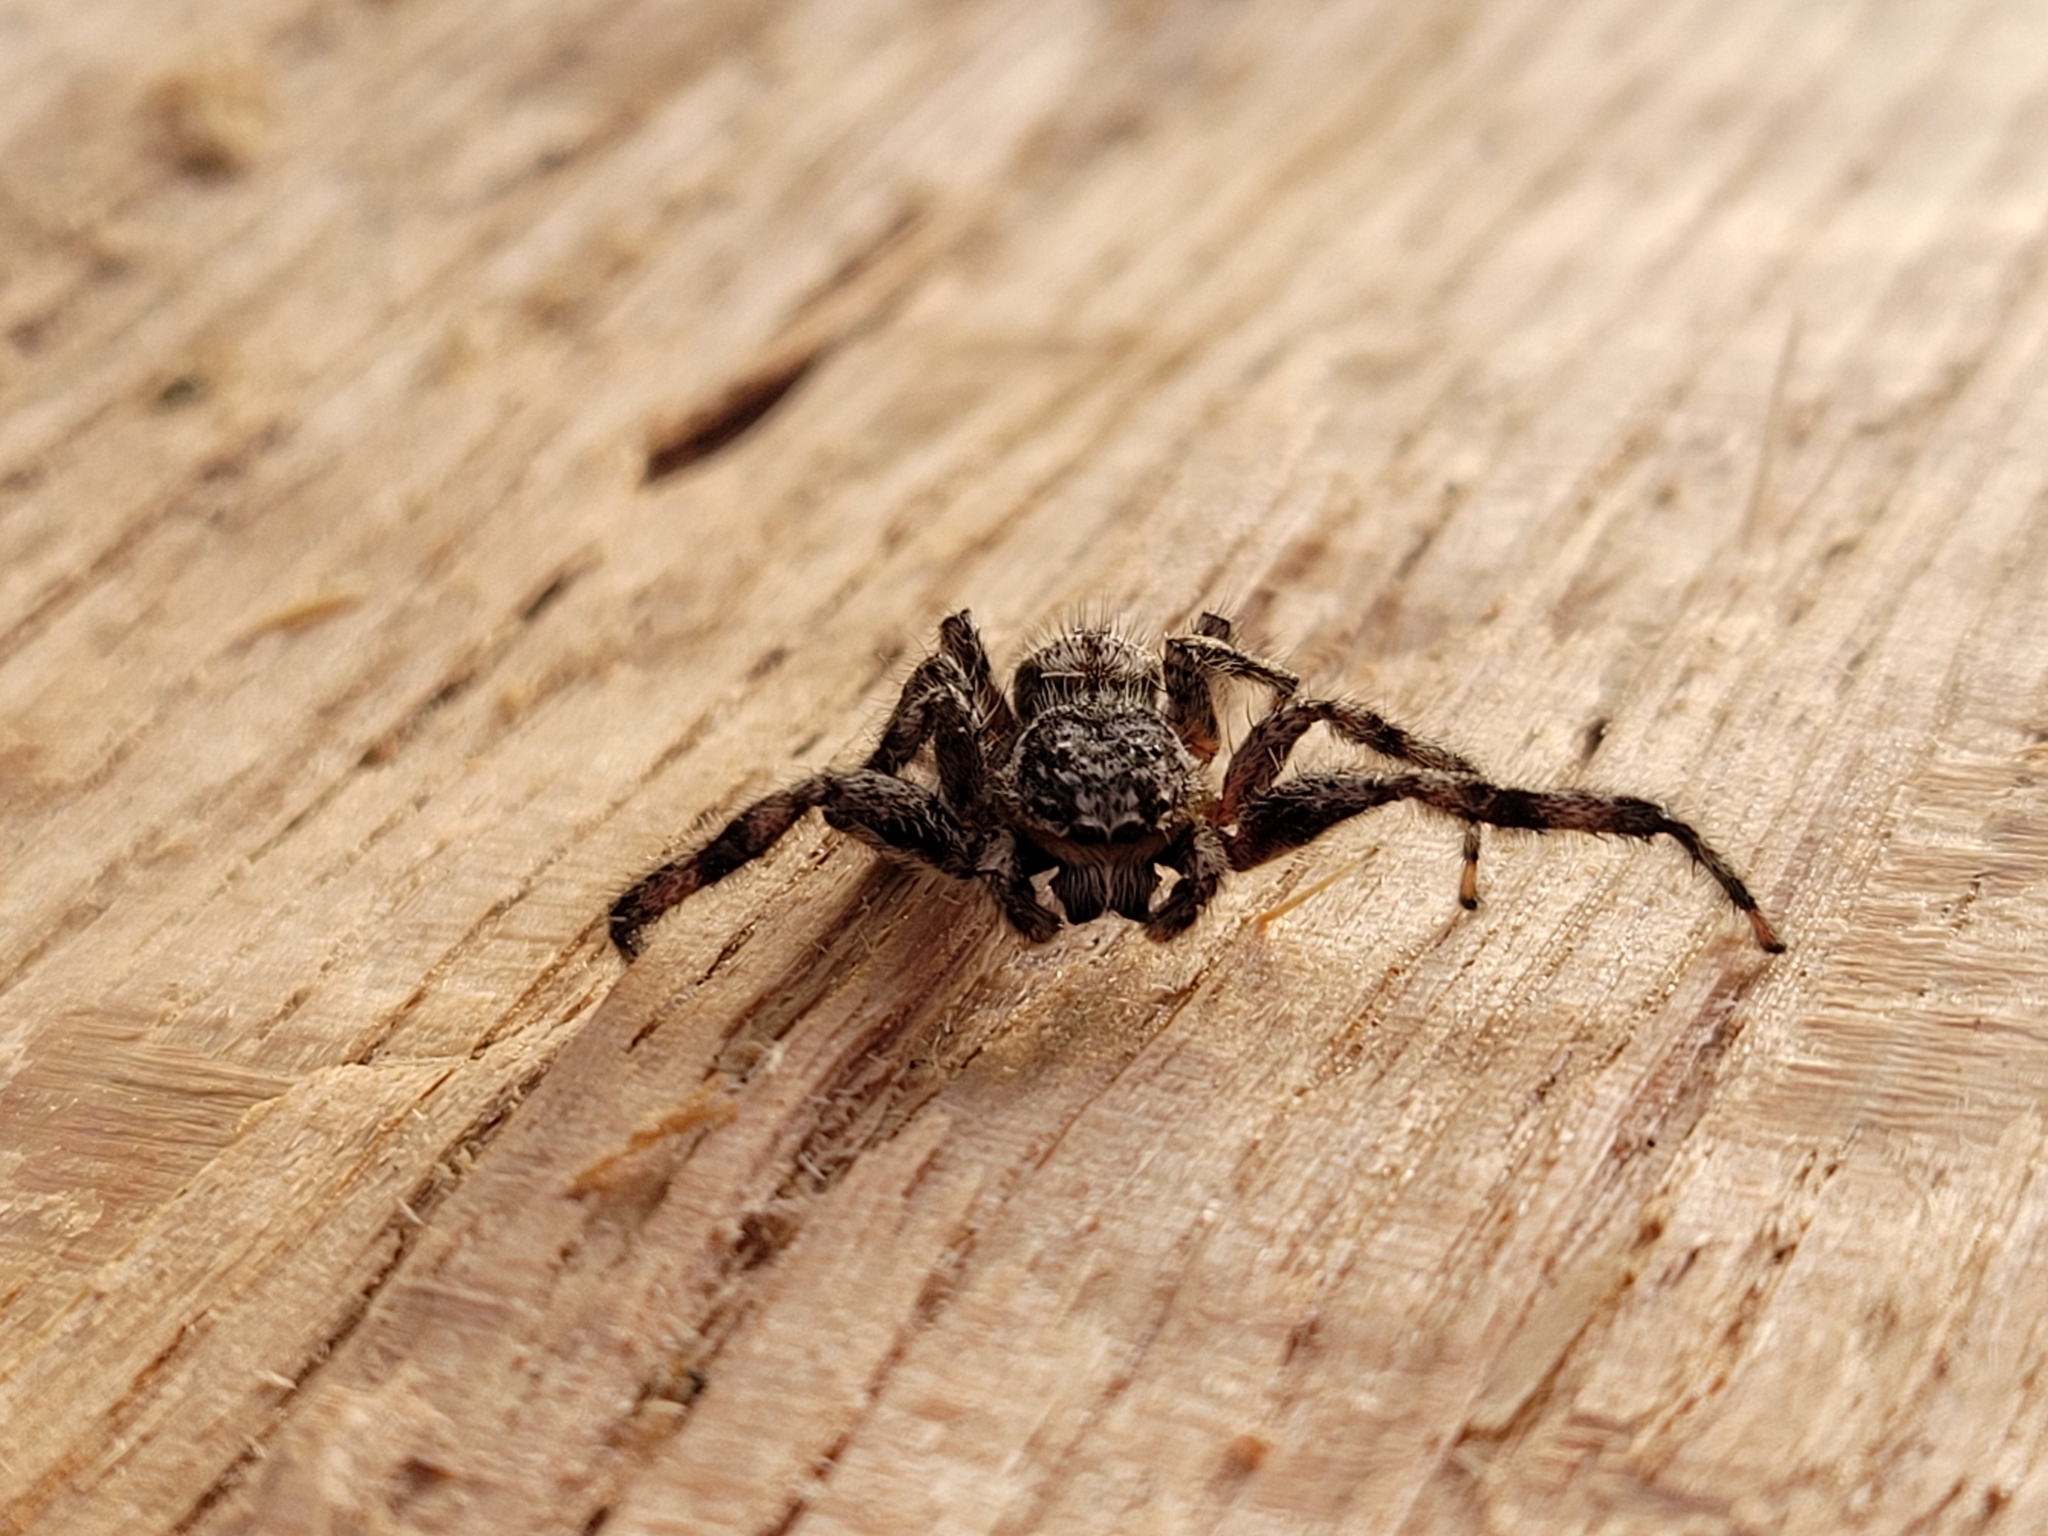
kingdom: Animalia
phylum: Arthropoda
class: Arachnida
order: Araneae
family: Salticidae
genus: Platycryptus
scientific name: Platycryptus undatus
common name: Tan jumping spider
